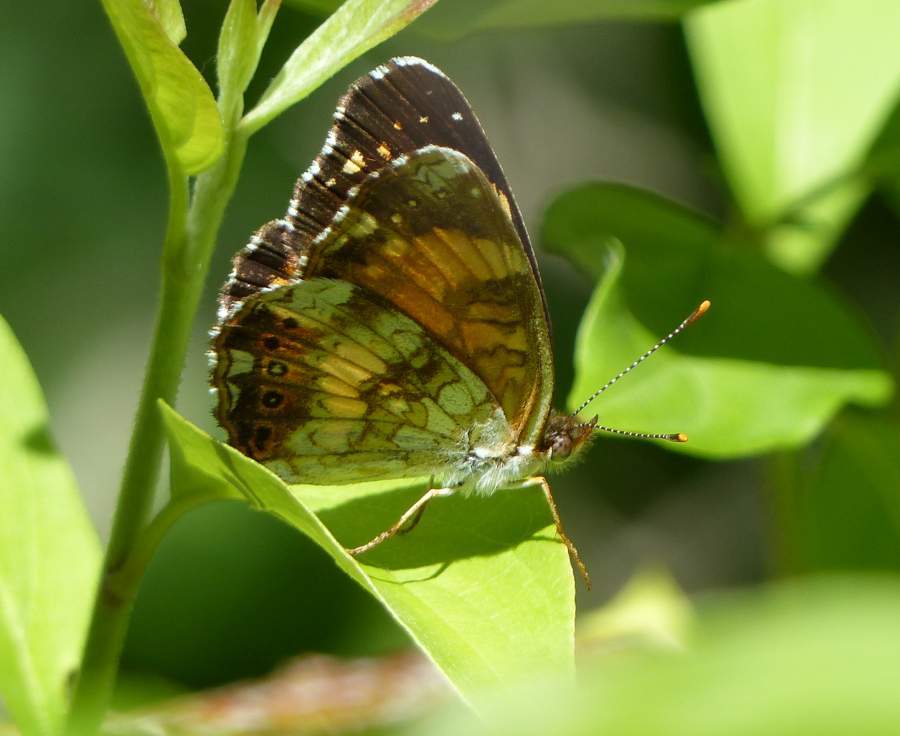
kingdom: Animalia
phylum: Arthropoda
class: Insecta
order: Lepidoptera
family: Nymphalidae
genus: Chlosyne
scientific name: Chlosyne nycteis
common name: Silvery checkerspot
